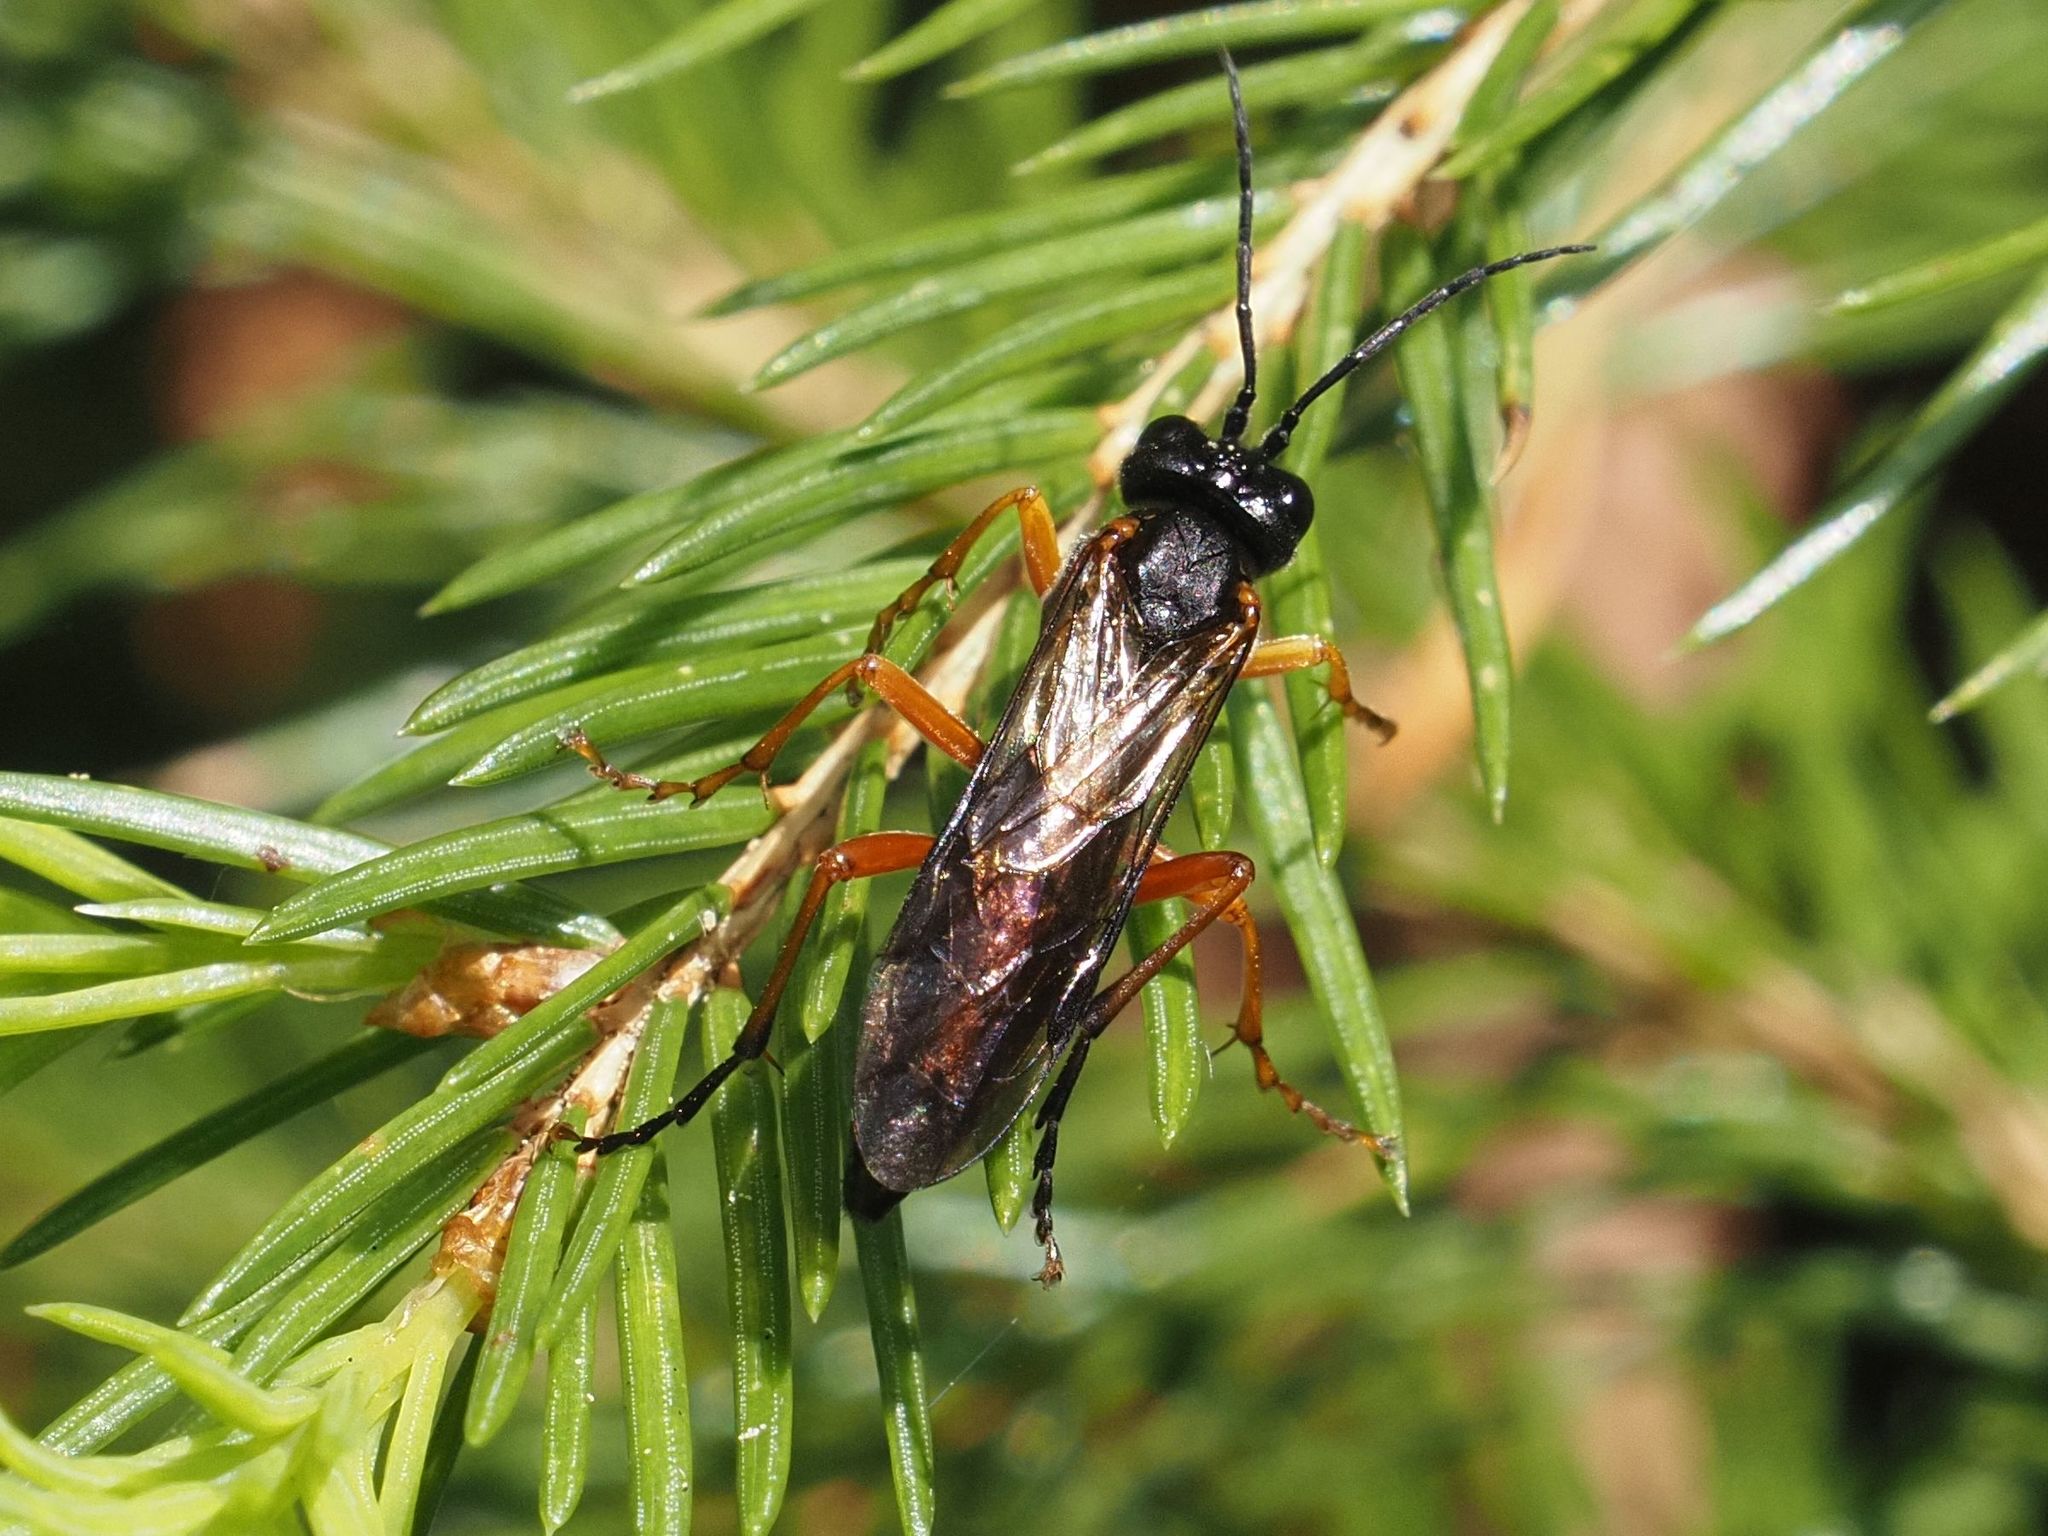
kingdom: Animalia
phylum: Arthropoda
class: Insecta
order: Hymenoptera
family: Tenthredinidae
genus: Tenthredo
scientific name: Tenthredo campestris
